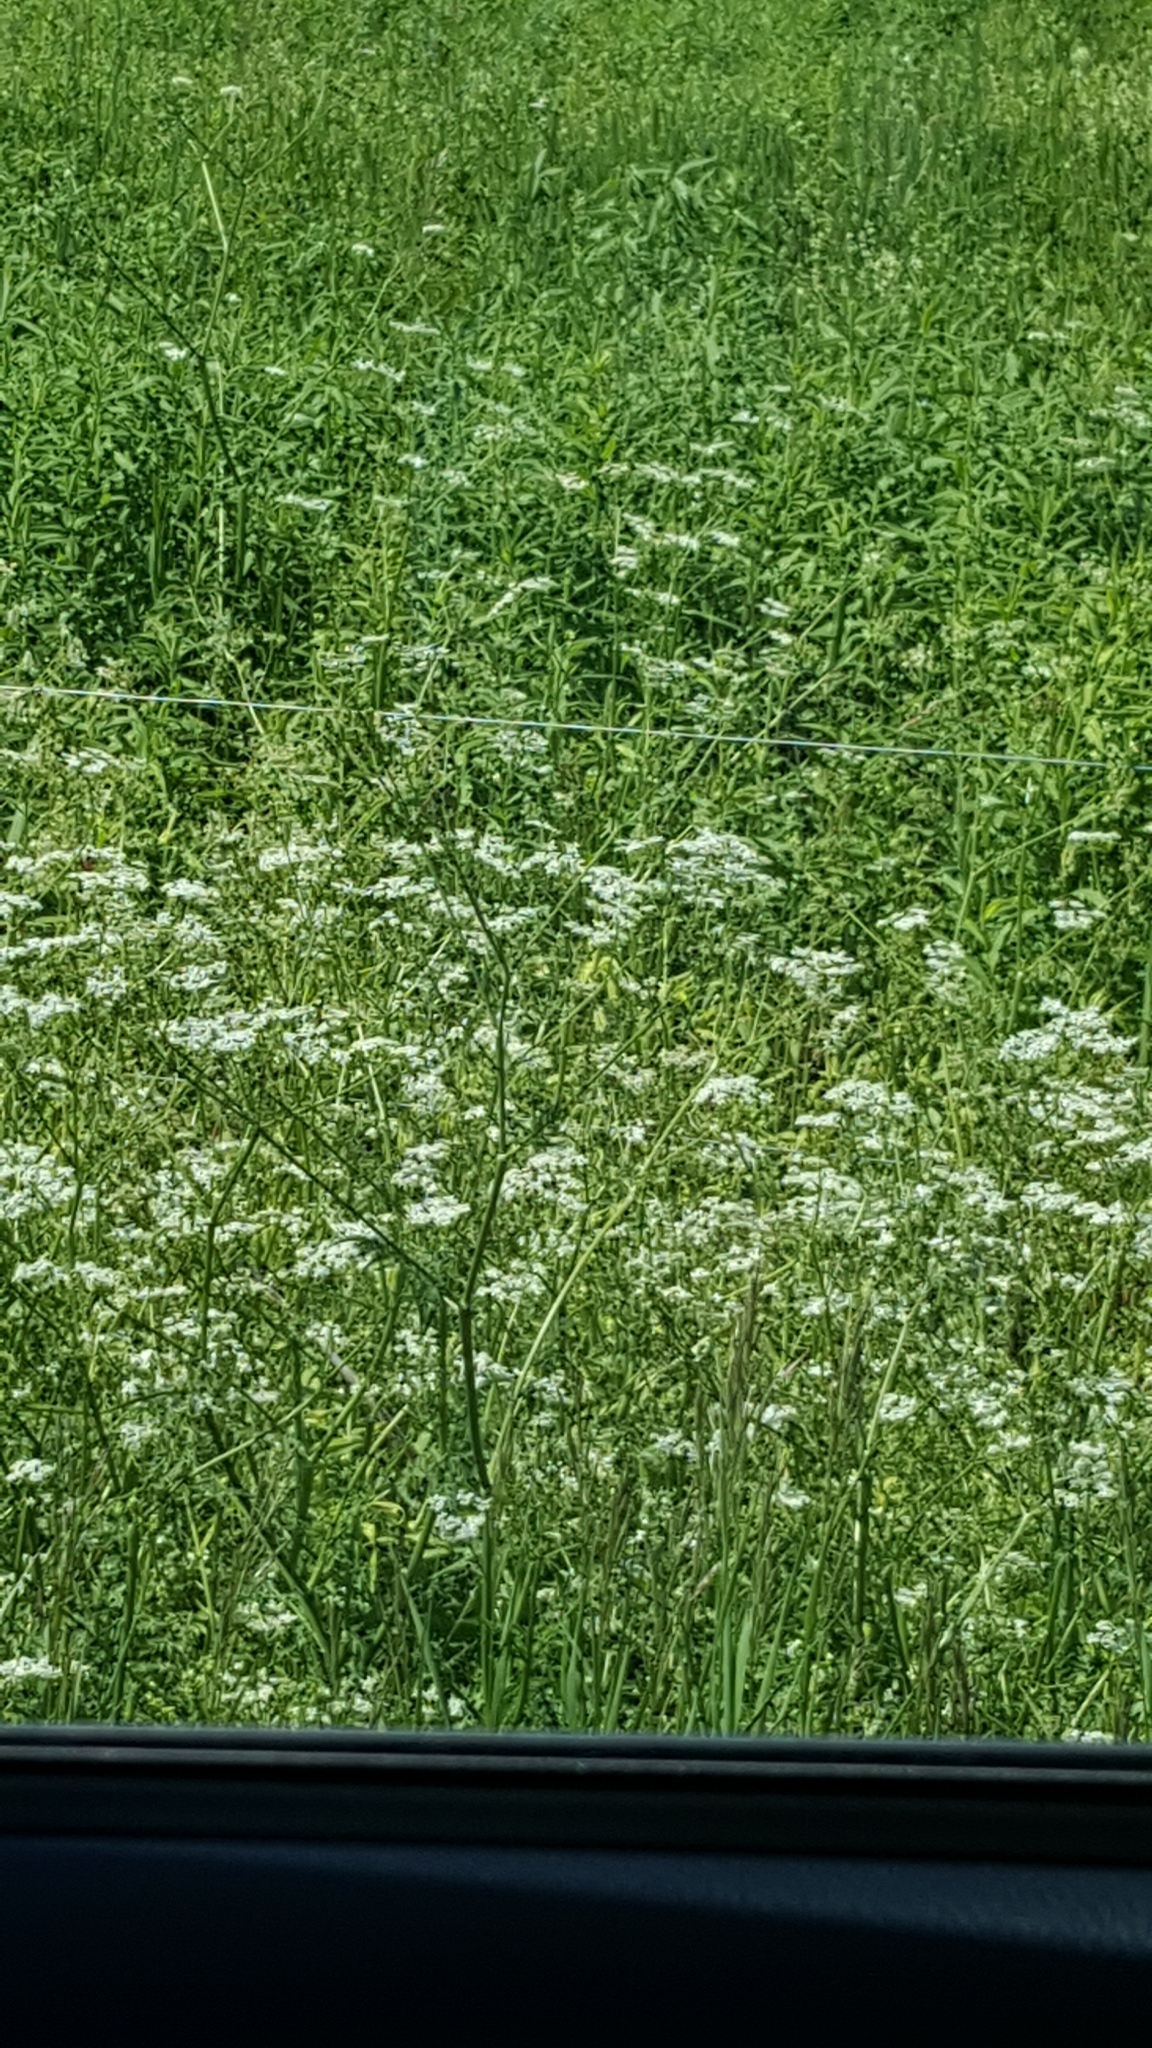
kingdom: Plantae
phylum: Tracheophyta
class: Magnoliopsida
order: Apiales
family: Apiaceae
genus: Anthriscus
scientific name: Anthriscus sylvestris
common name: Cow parsley
